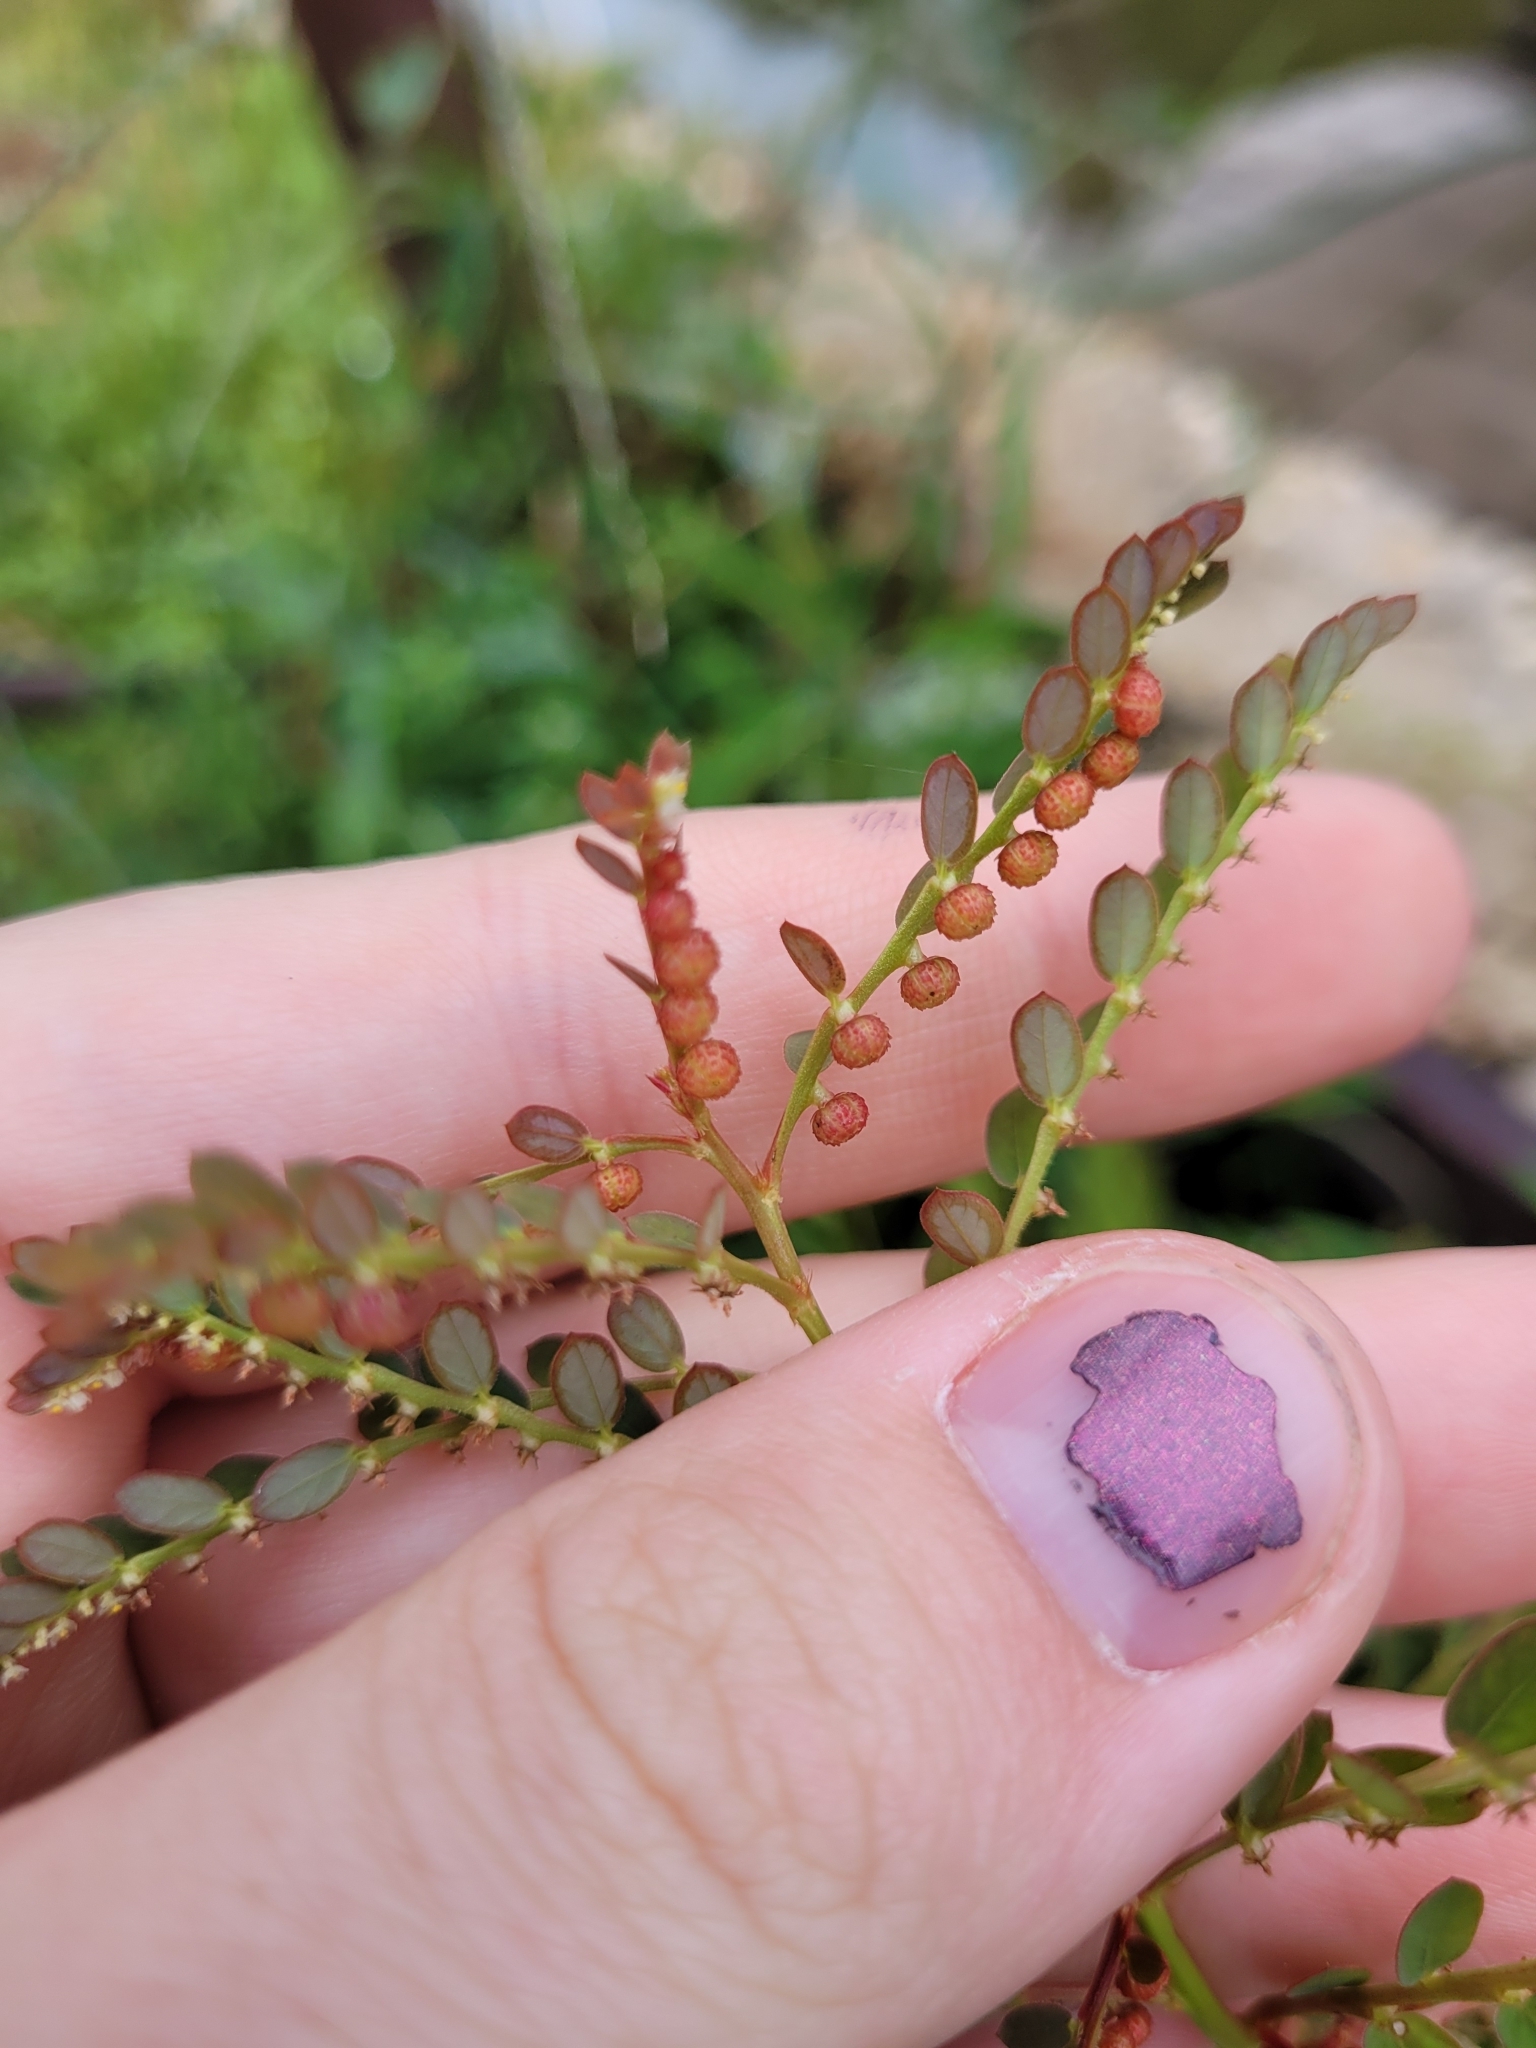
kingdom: Plantae
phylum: Tracheophyta
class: Magnoliopsida
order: Malpighiales
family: Phyllanthaceae
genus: Phyllanthus
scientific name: Phyllanthus urinaria
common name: Chamber bitter
